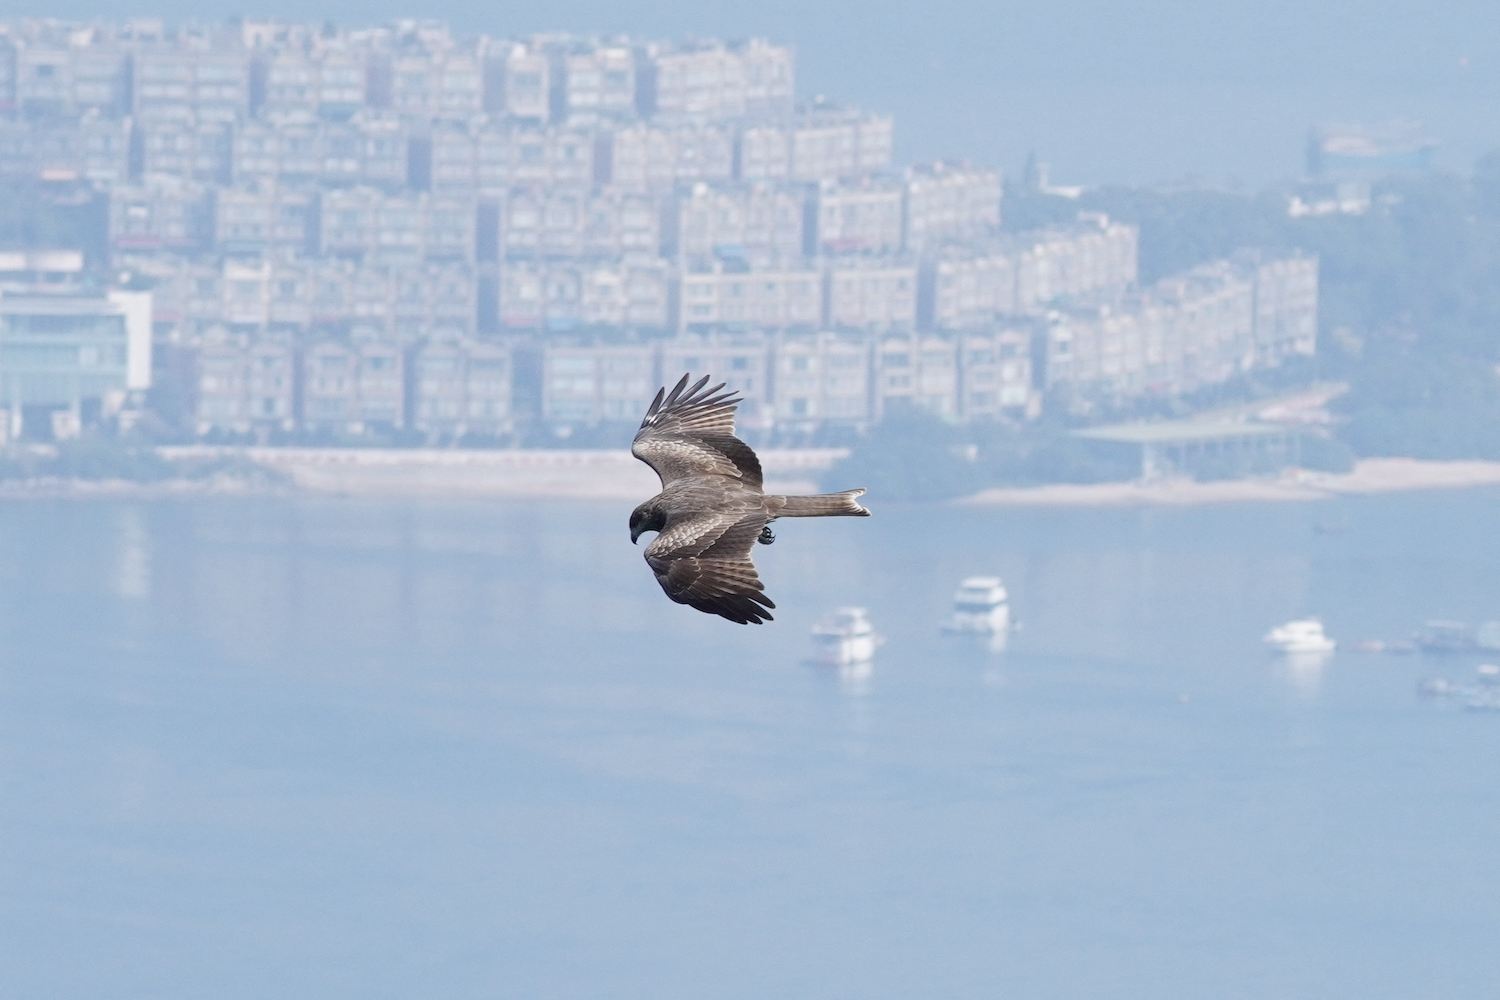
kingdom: Animalia
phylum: Chordata
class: Aves
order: Accipitriformes
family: Accipitridae
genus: Milvus
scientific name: Milvus migrans
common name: Black kite
